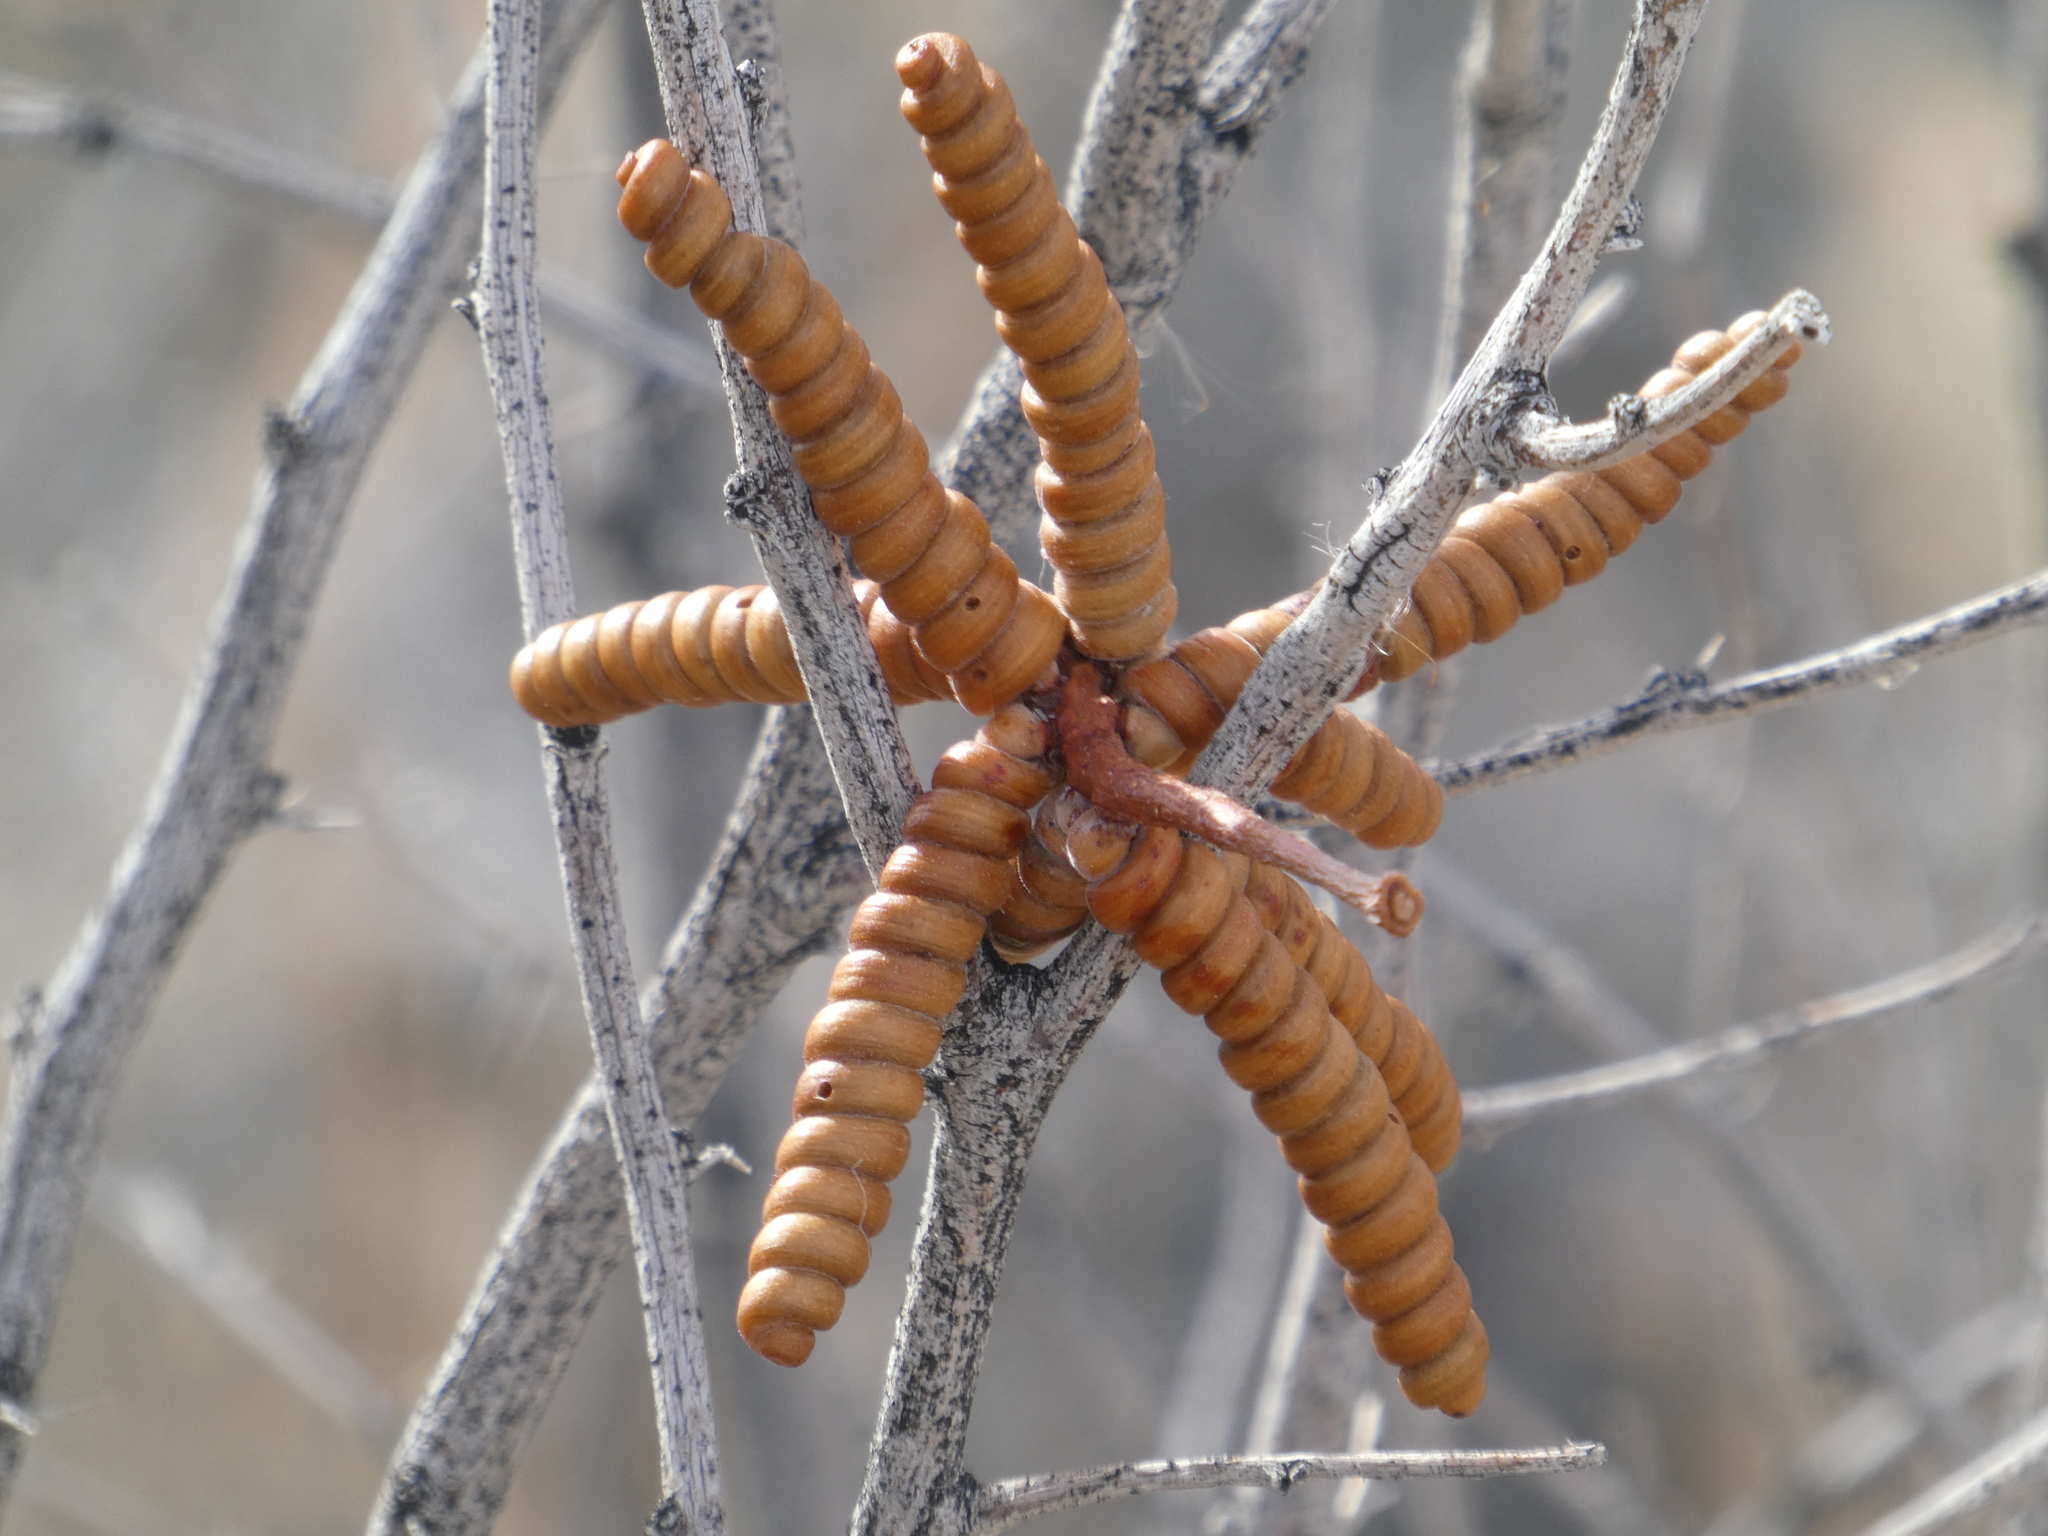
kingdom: Plantae
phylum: Tracheophyta
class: Magnoliopsida
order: Fabales
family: Fabaceae
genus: Prosopis
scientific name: Prosopis pubescens
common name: Screw-bean
